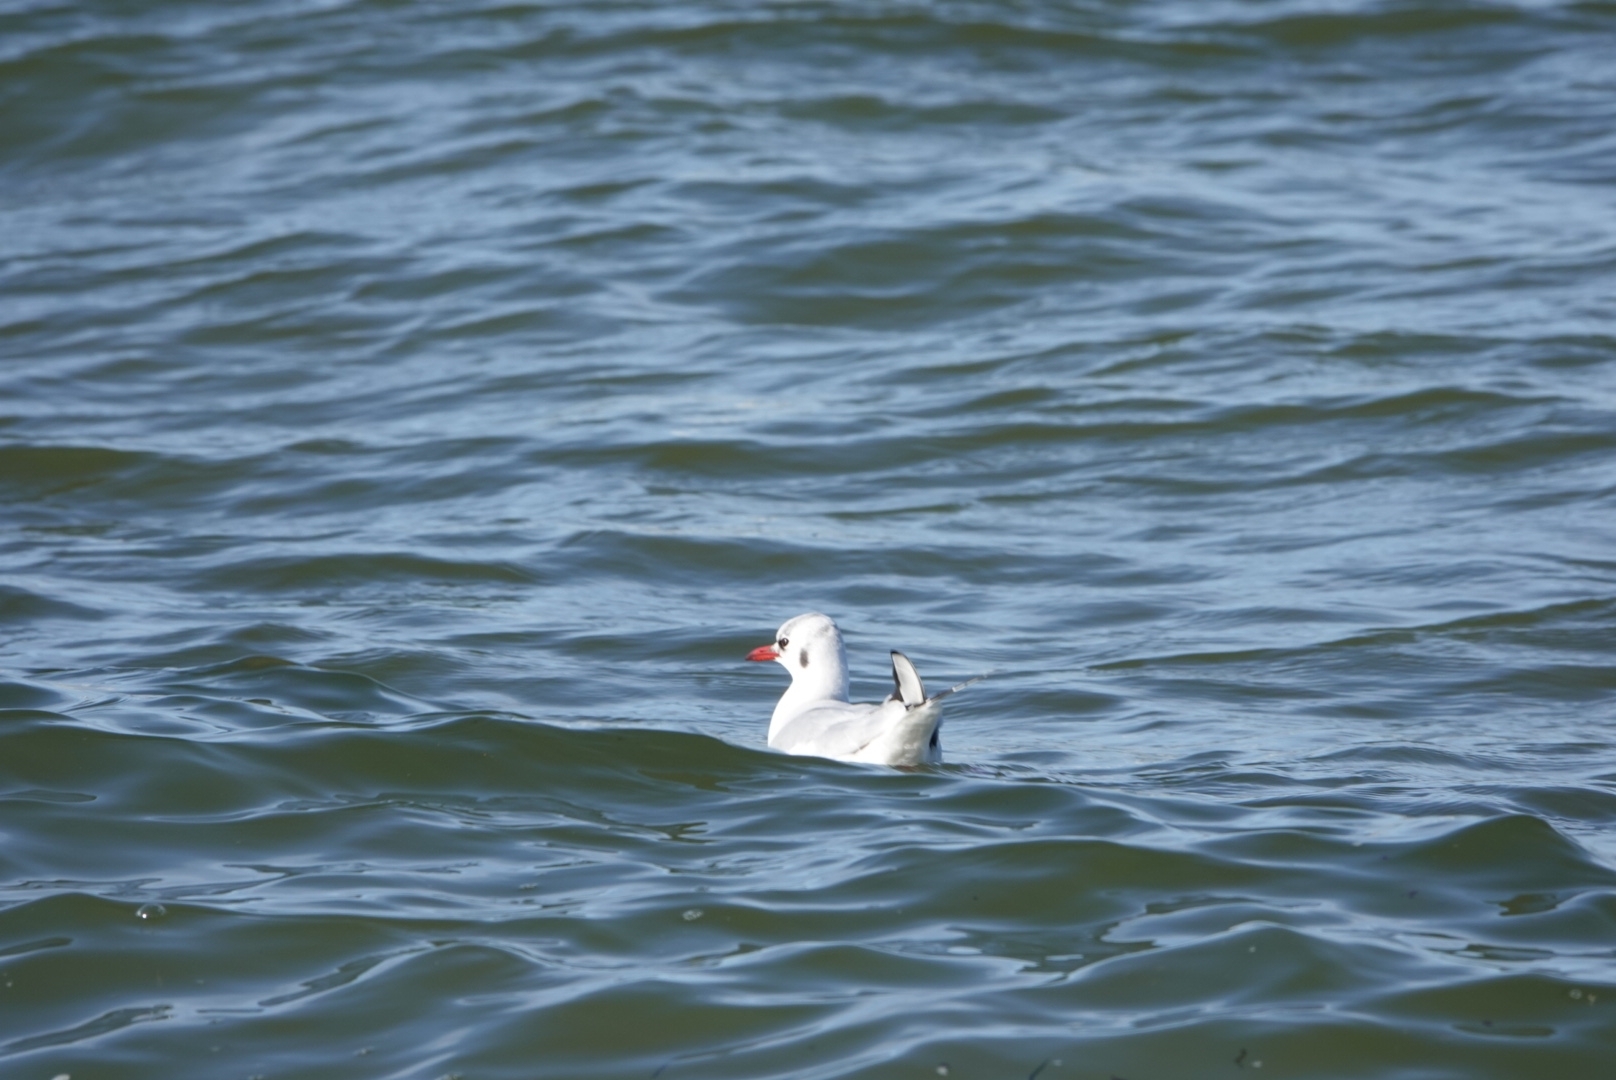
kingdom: Animalia
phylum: Chordata
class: Aves
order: Charadriiformes
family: Laridae
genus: Chroicocephalus
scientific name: Chroicocephalus ridibundus
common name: Black-headed gull
